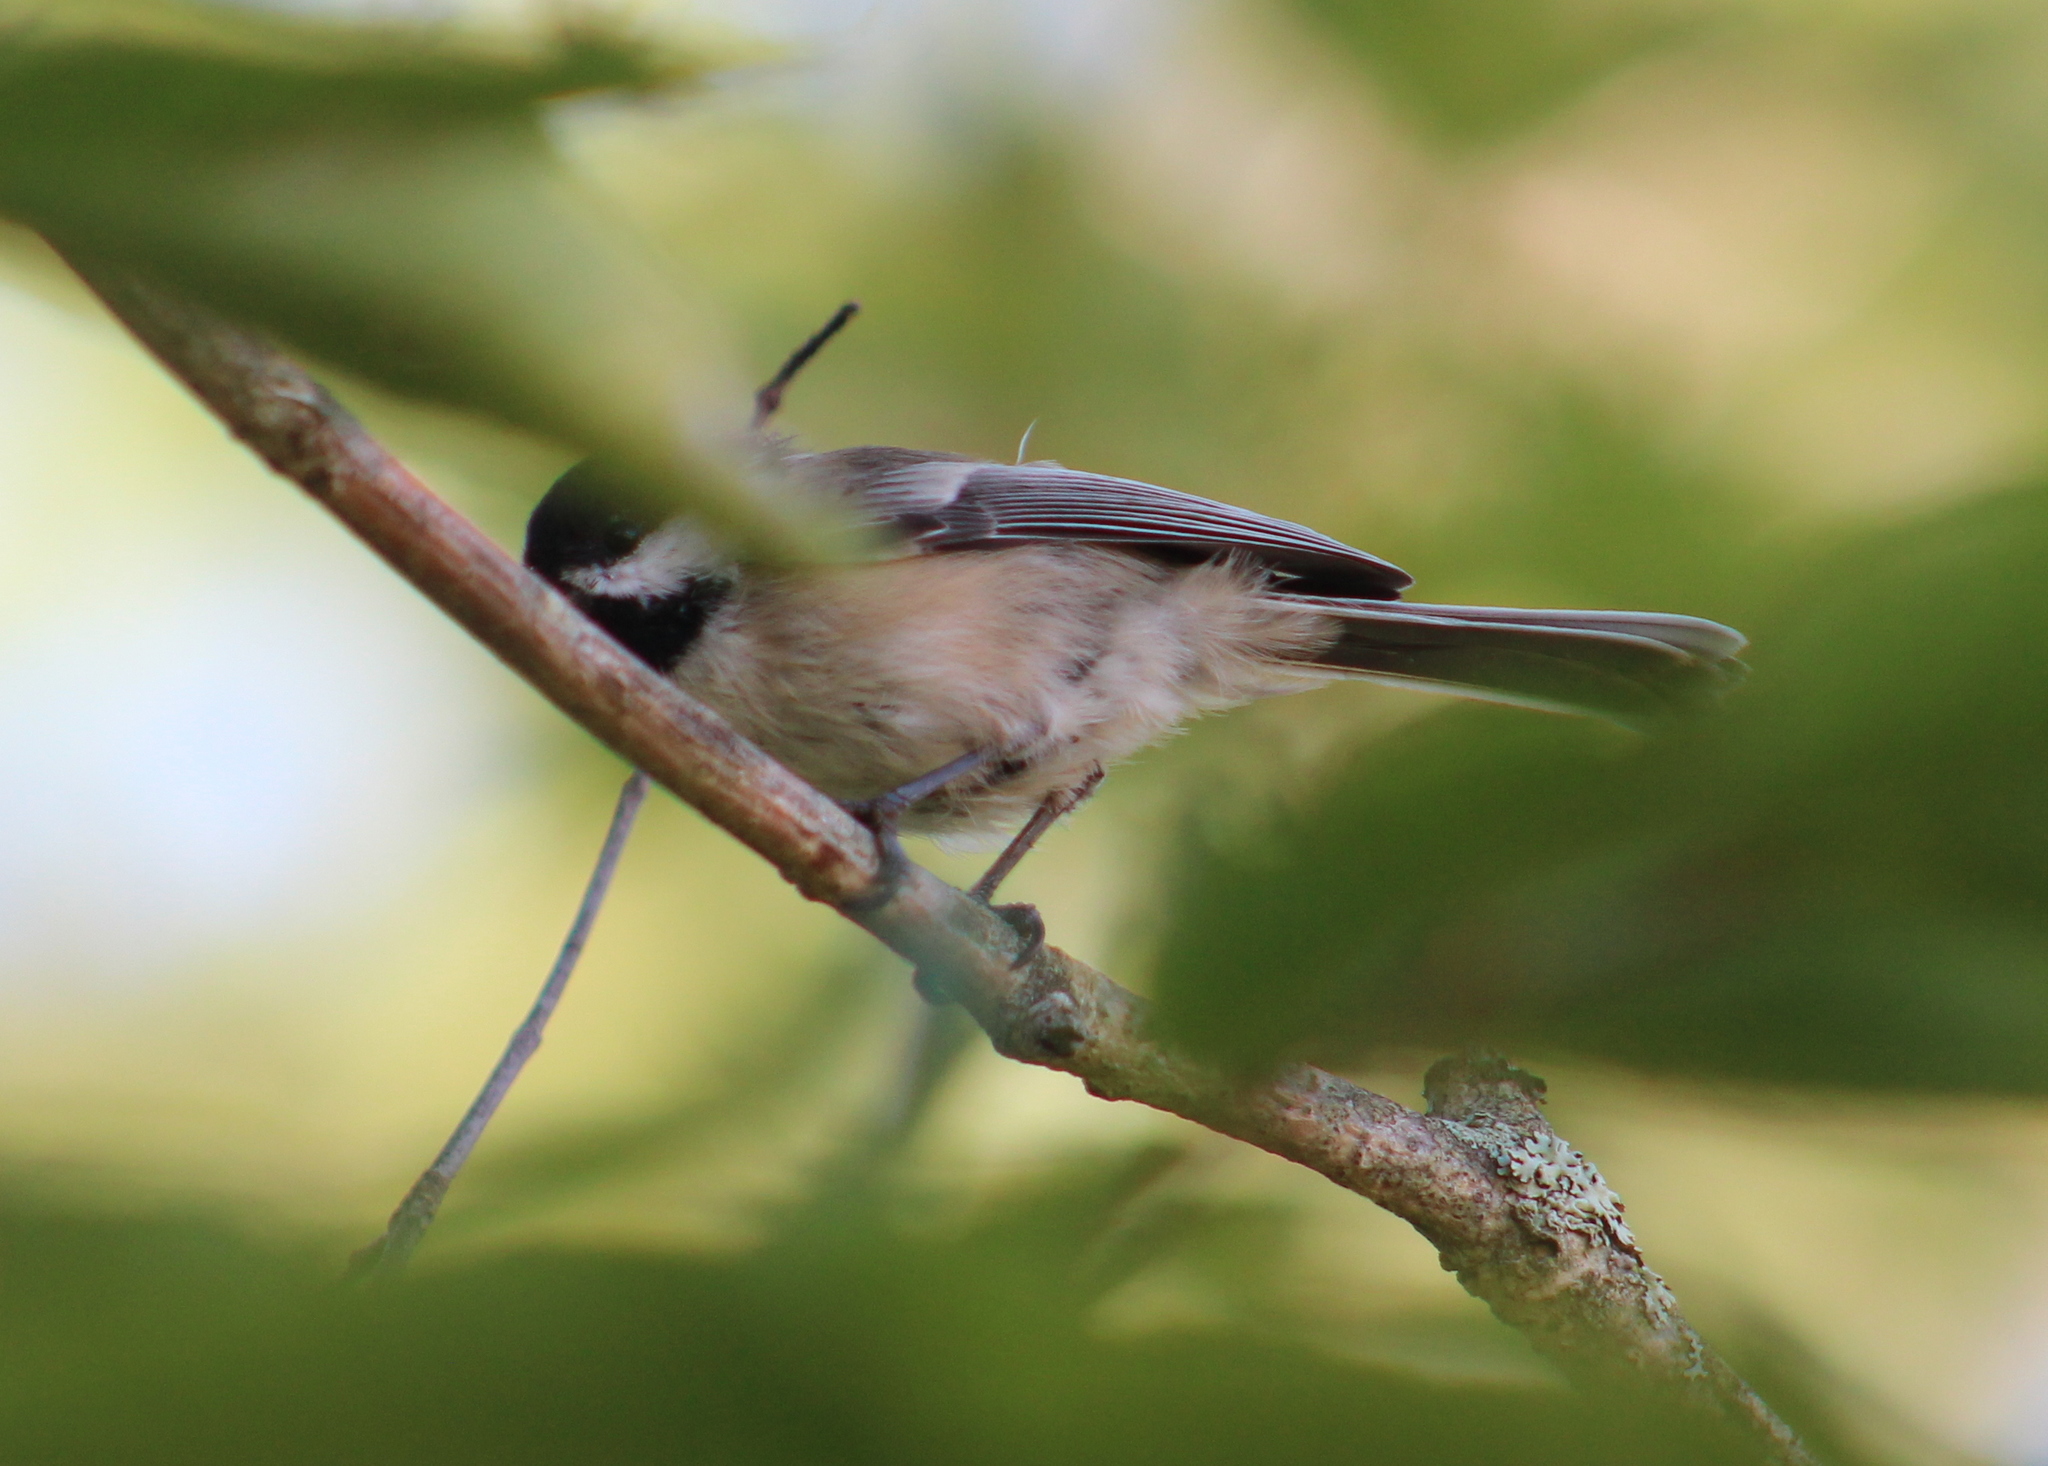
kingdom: Animalia
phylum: Chordata
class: Aves
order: Passeriformes
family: Paridae
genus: Poecile
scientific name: Poecile atricapillus
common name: Black-capped chickadee
